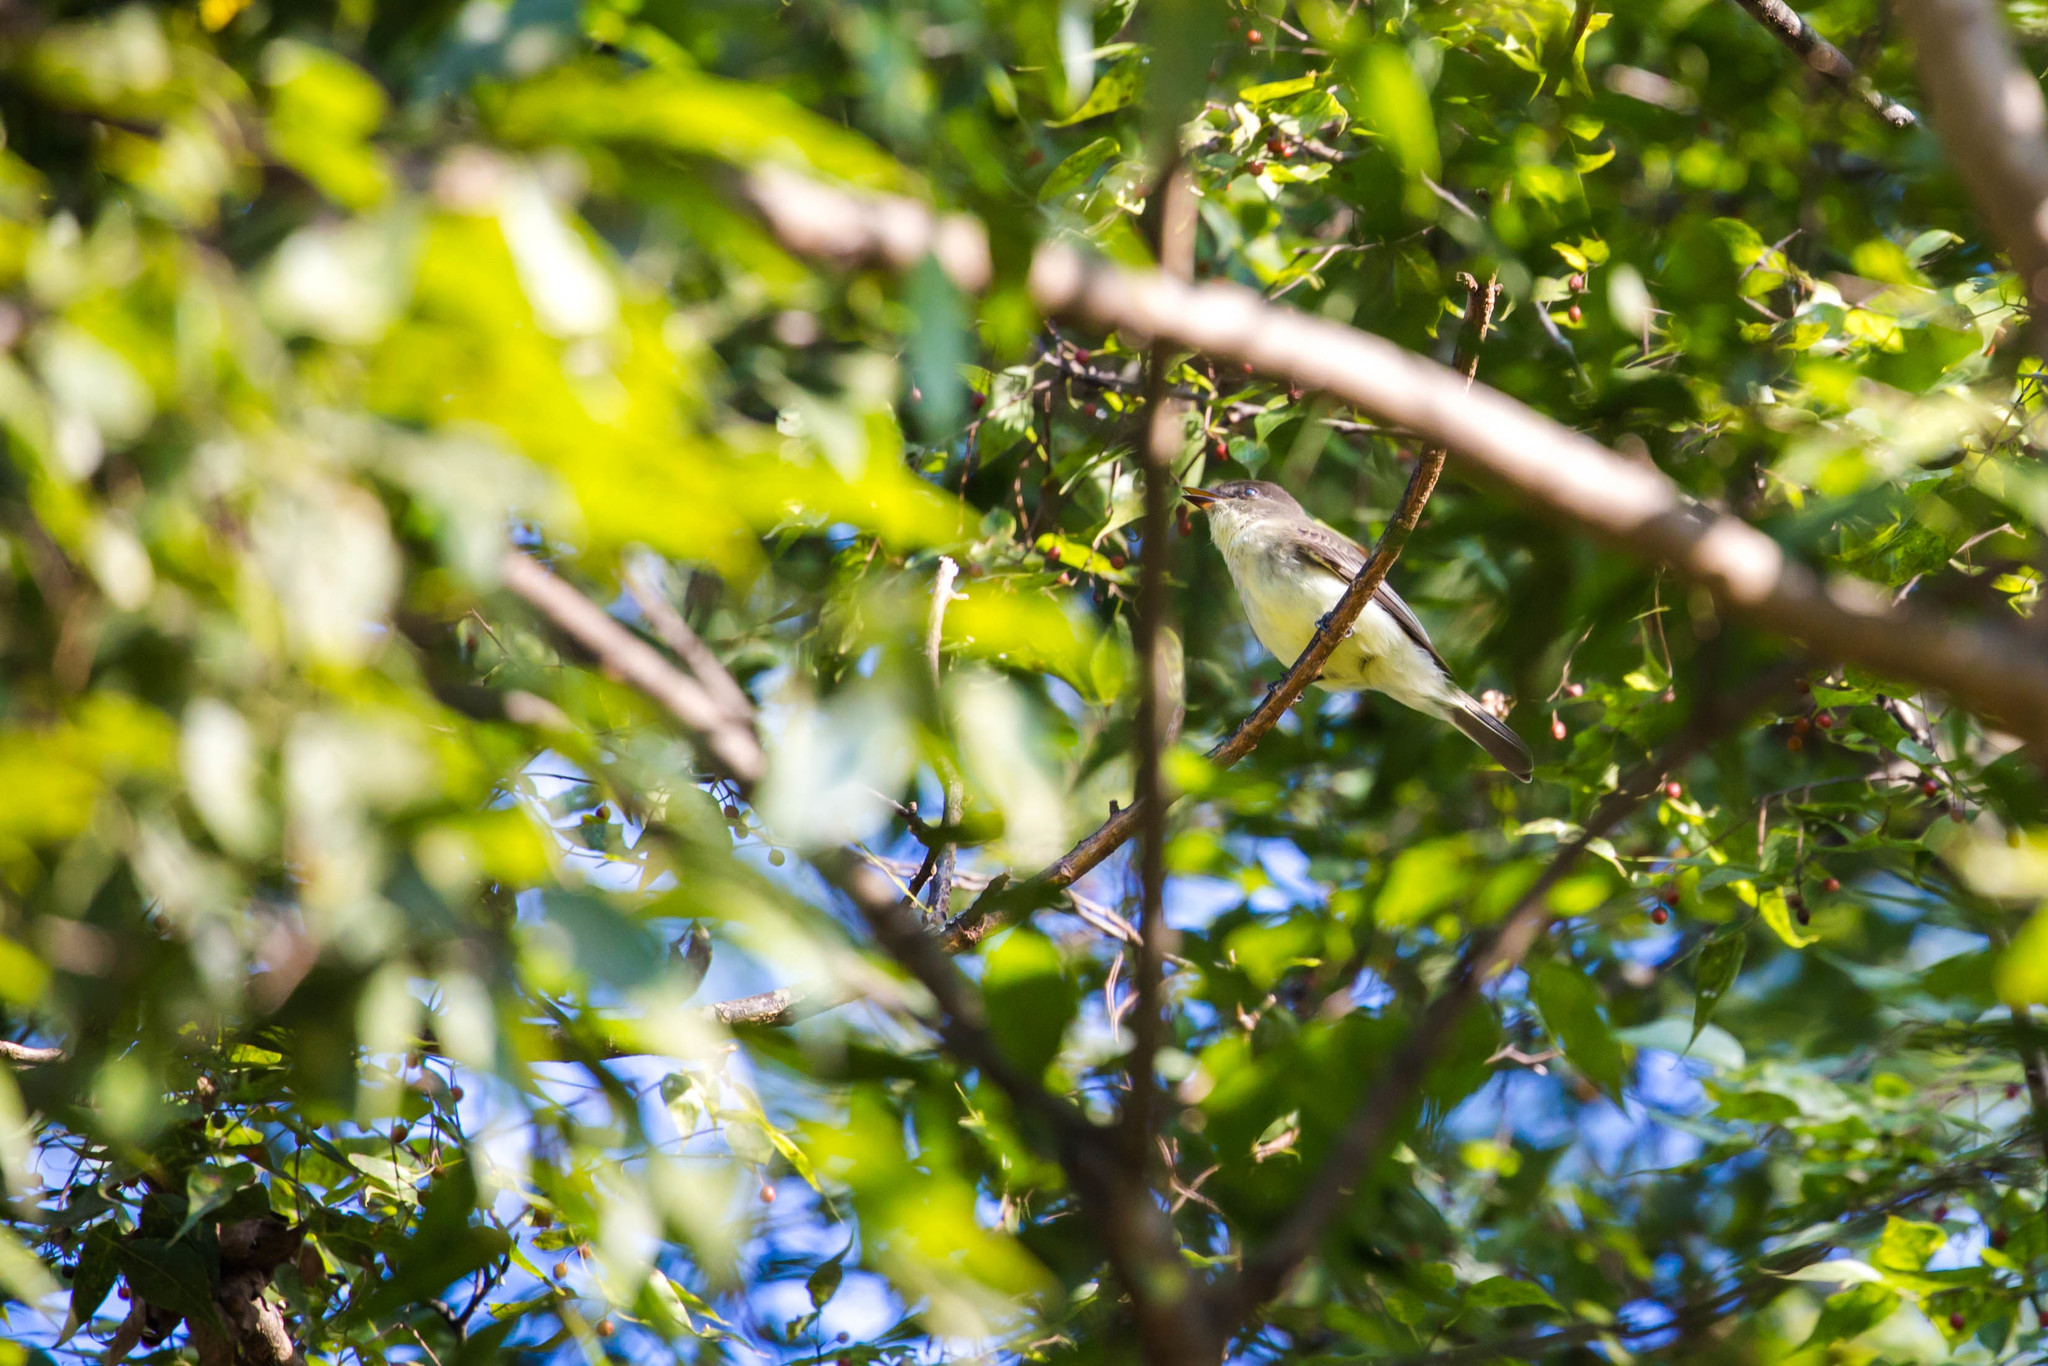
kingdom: Animalia
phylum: Chordata
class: Aves
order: Passeriformes
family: Tyrannidae
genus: Sayornis
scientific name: Sayornis phoebe
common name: Eastern phoebe
